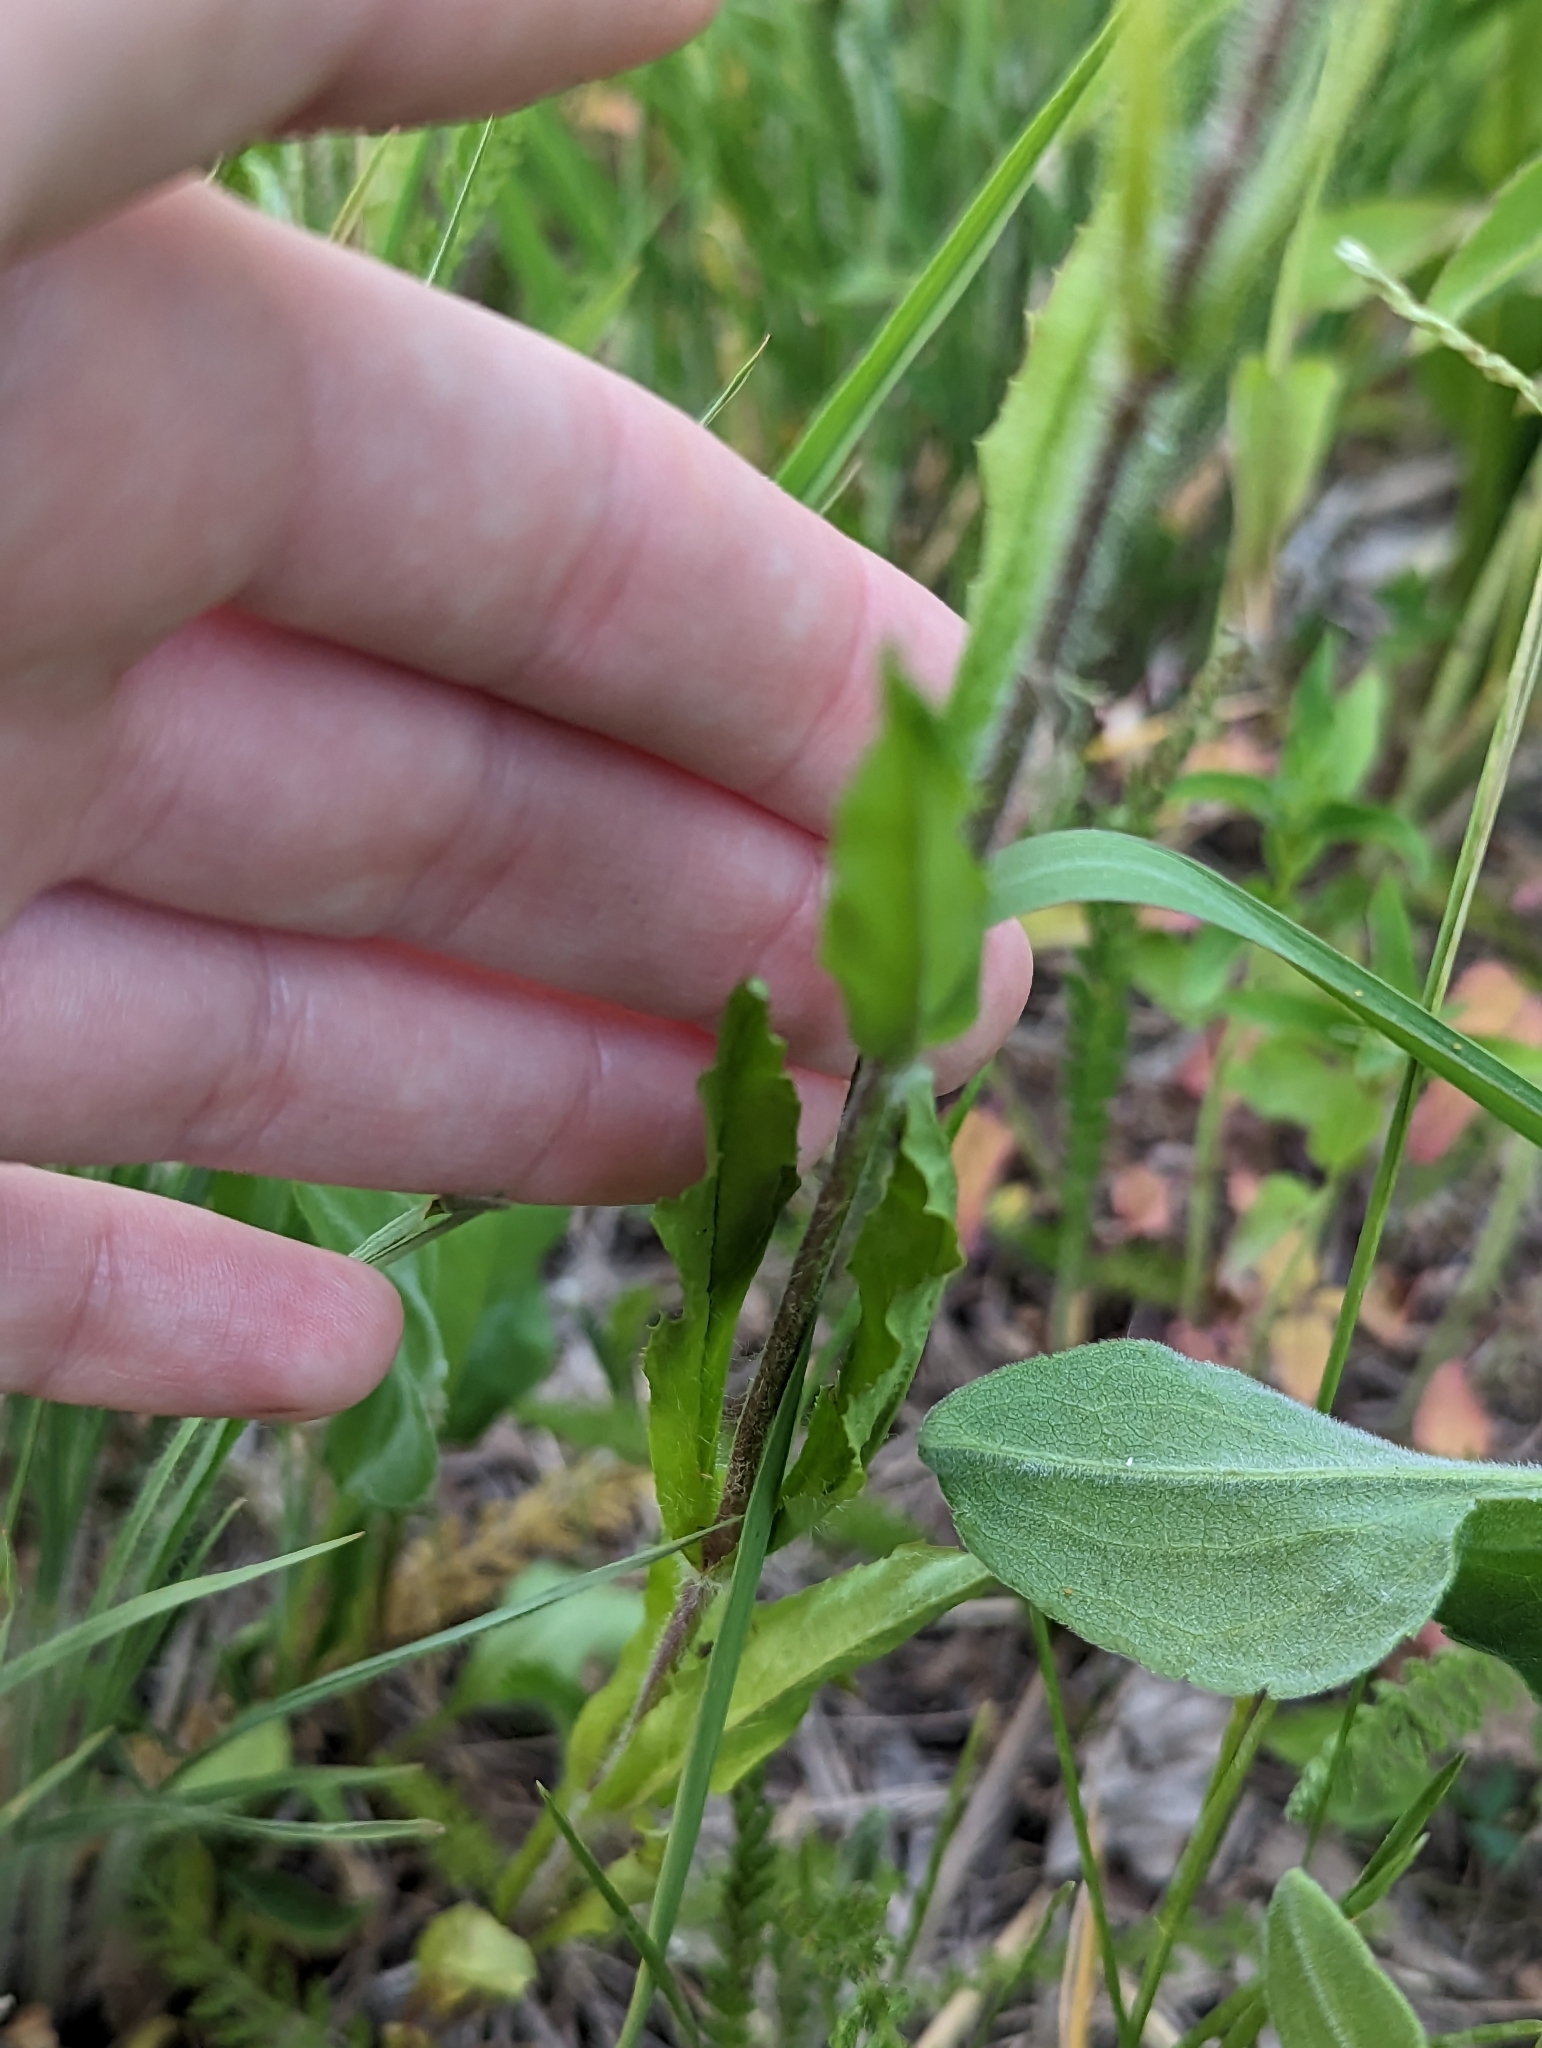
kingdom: Plantae
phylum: Tracheophyta
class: Magnoliopsida
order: Lamiales
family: Plantaginaceae
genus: Penstemon
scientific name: Penstemon hirsutus
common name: Hairy beardtongue
